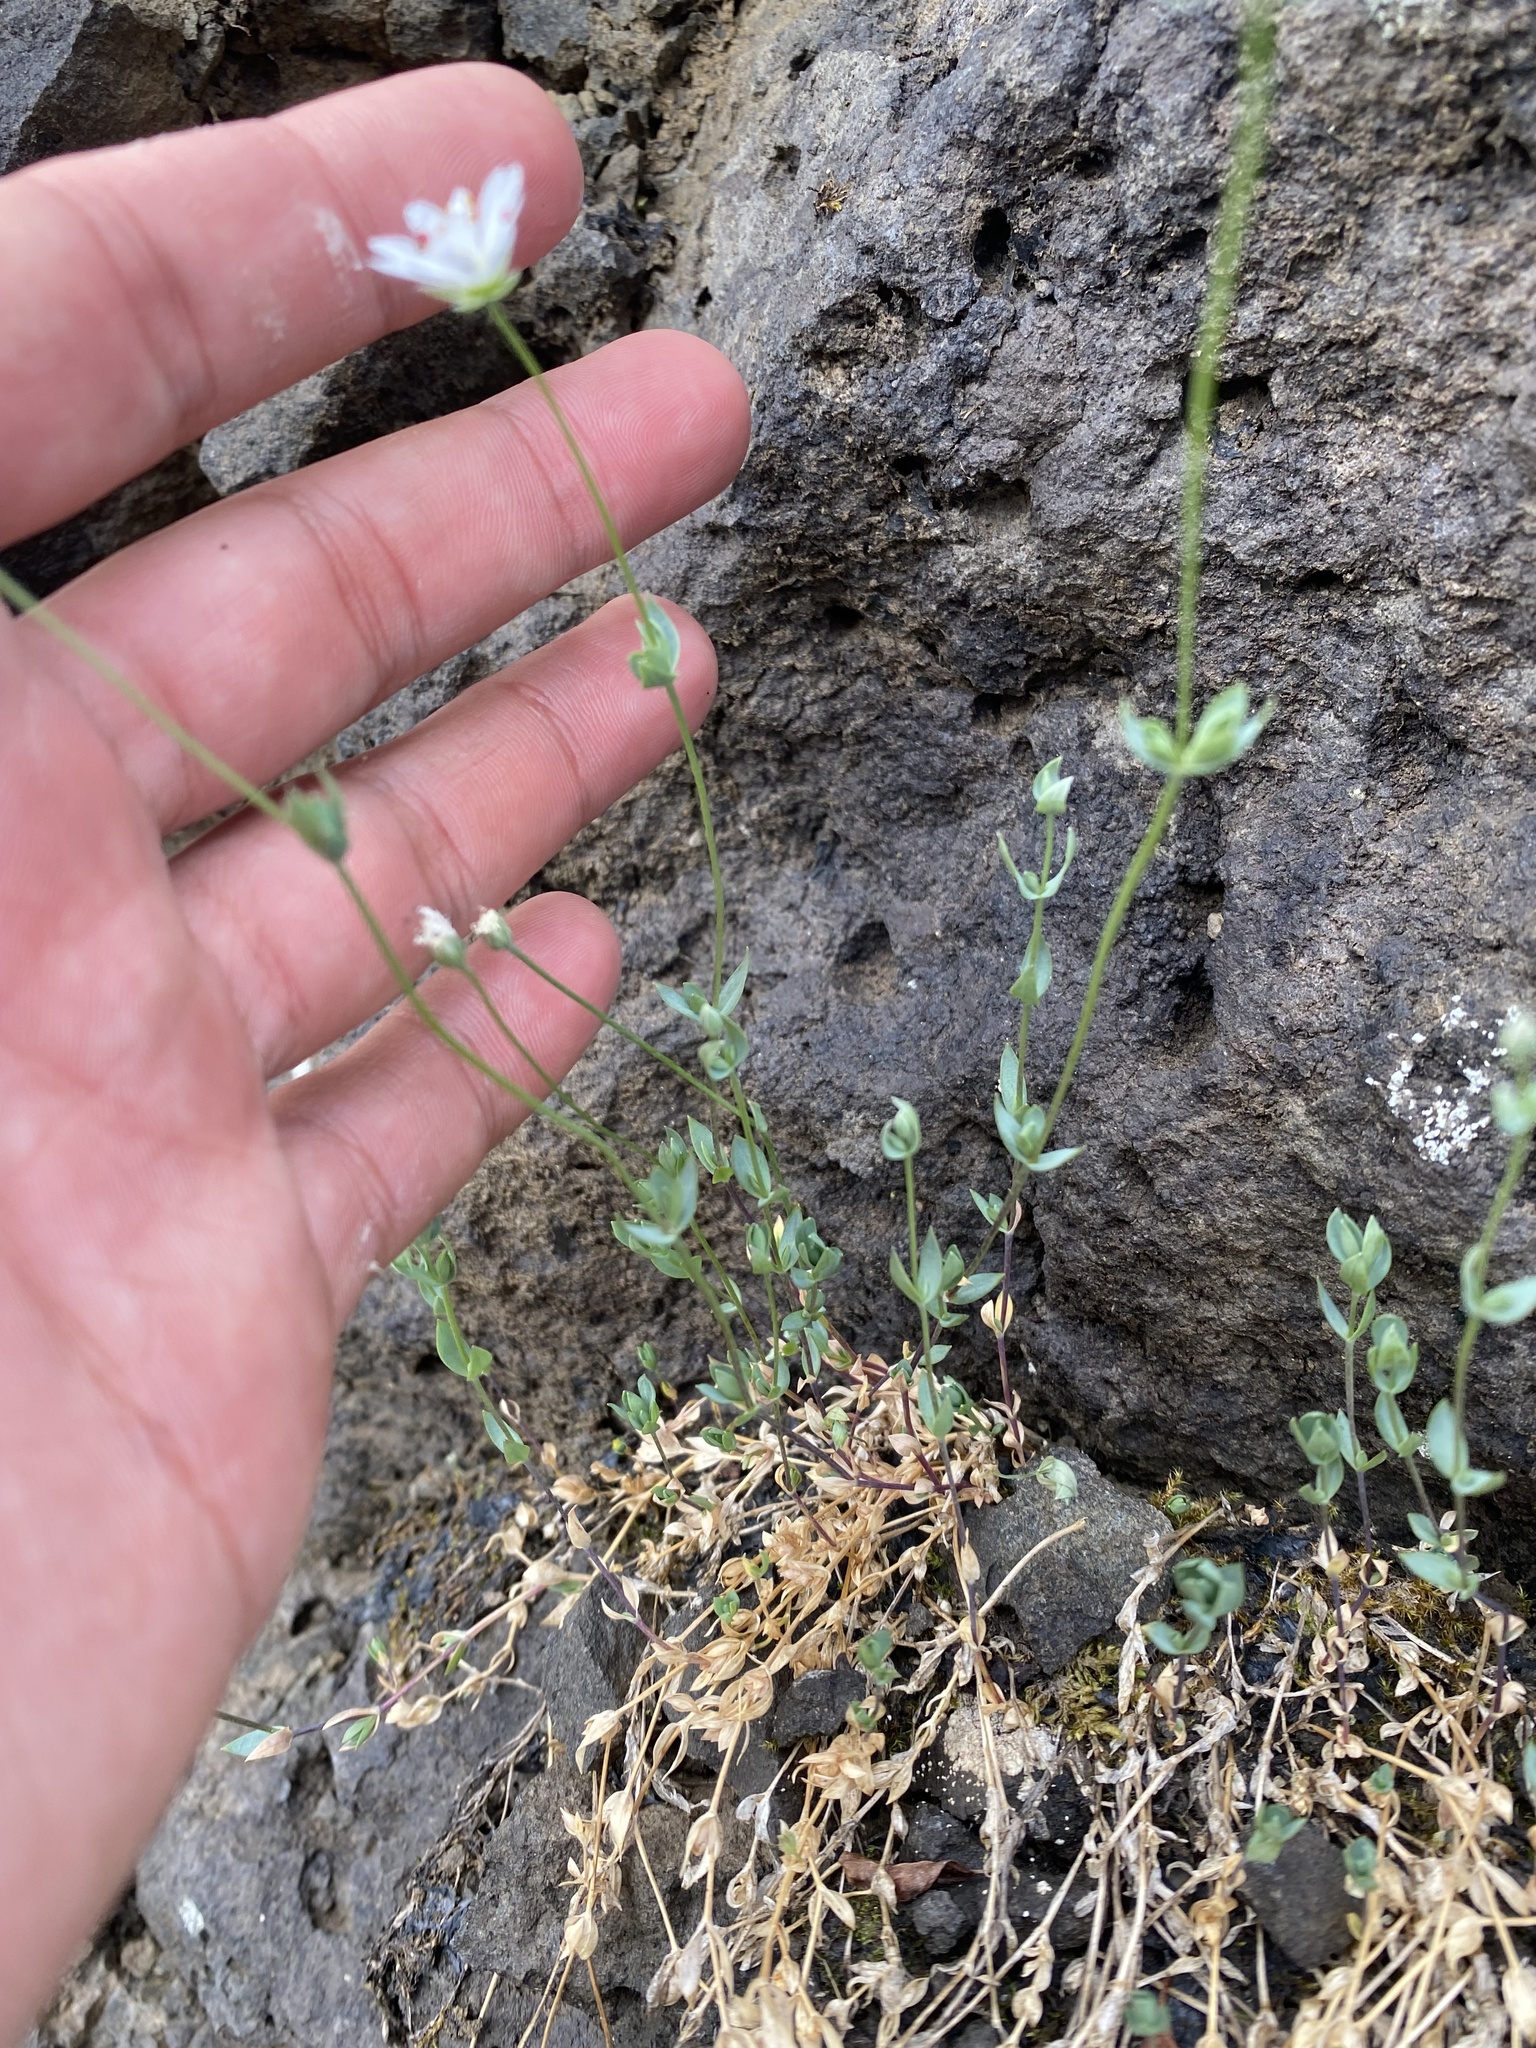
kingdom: Plantae
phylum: Tracheophyta
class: Magnoliopsida
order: Caryophyllales
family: Caryophyllaceae
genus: Stellaria
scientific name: Stellaria longipes
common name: Goldie's starwort
